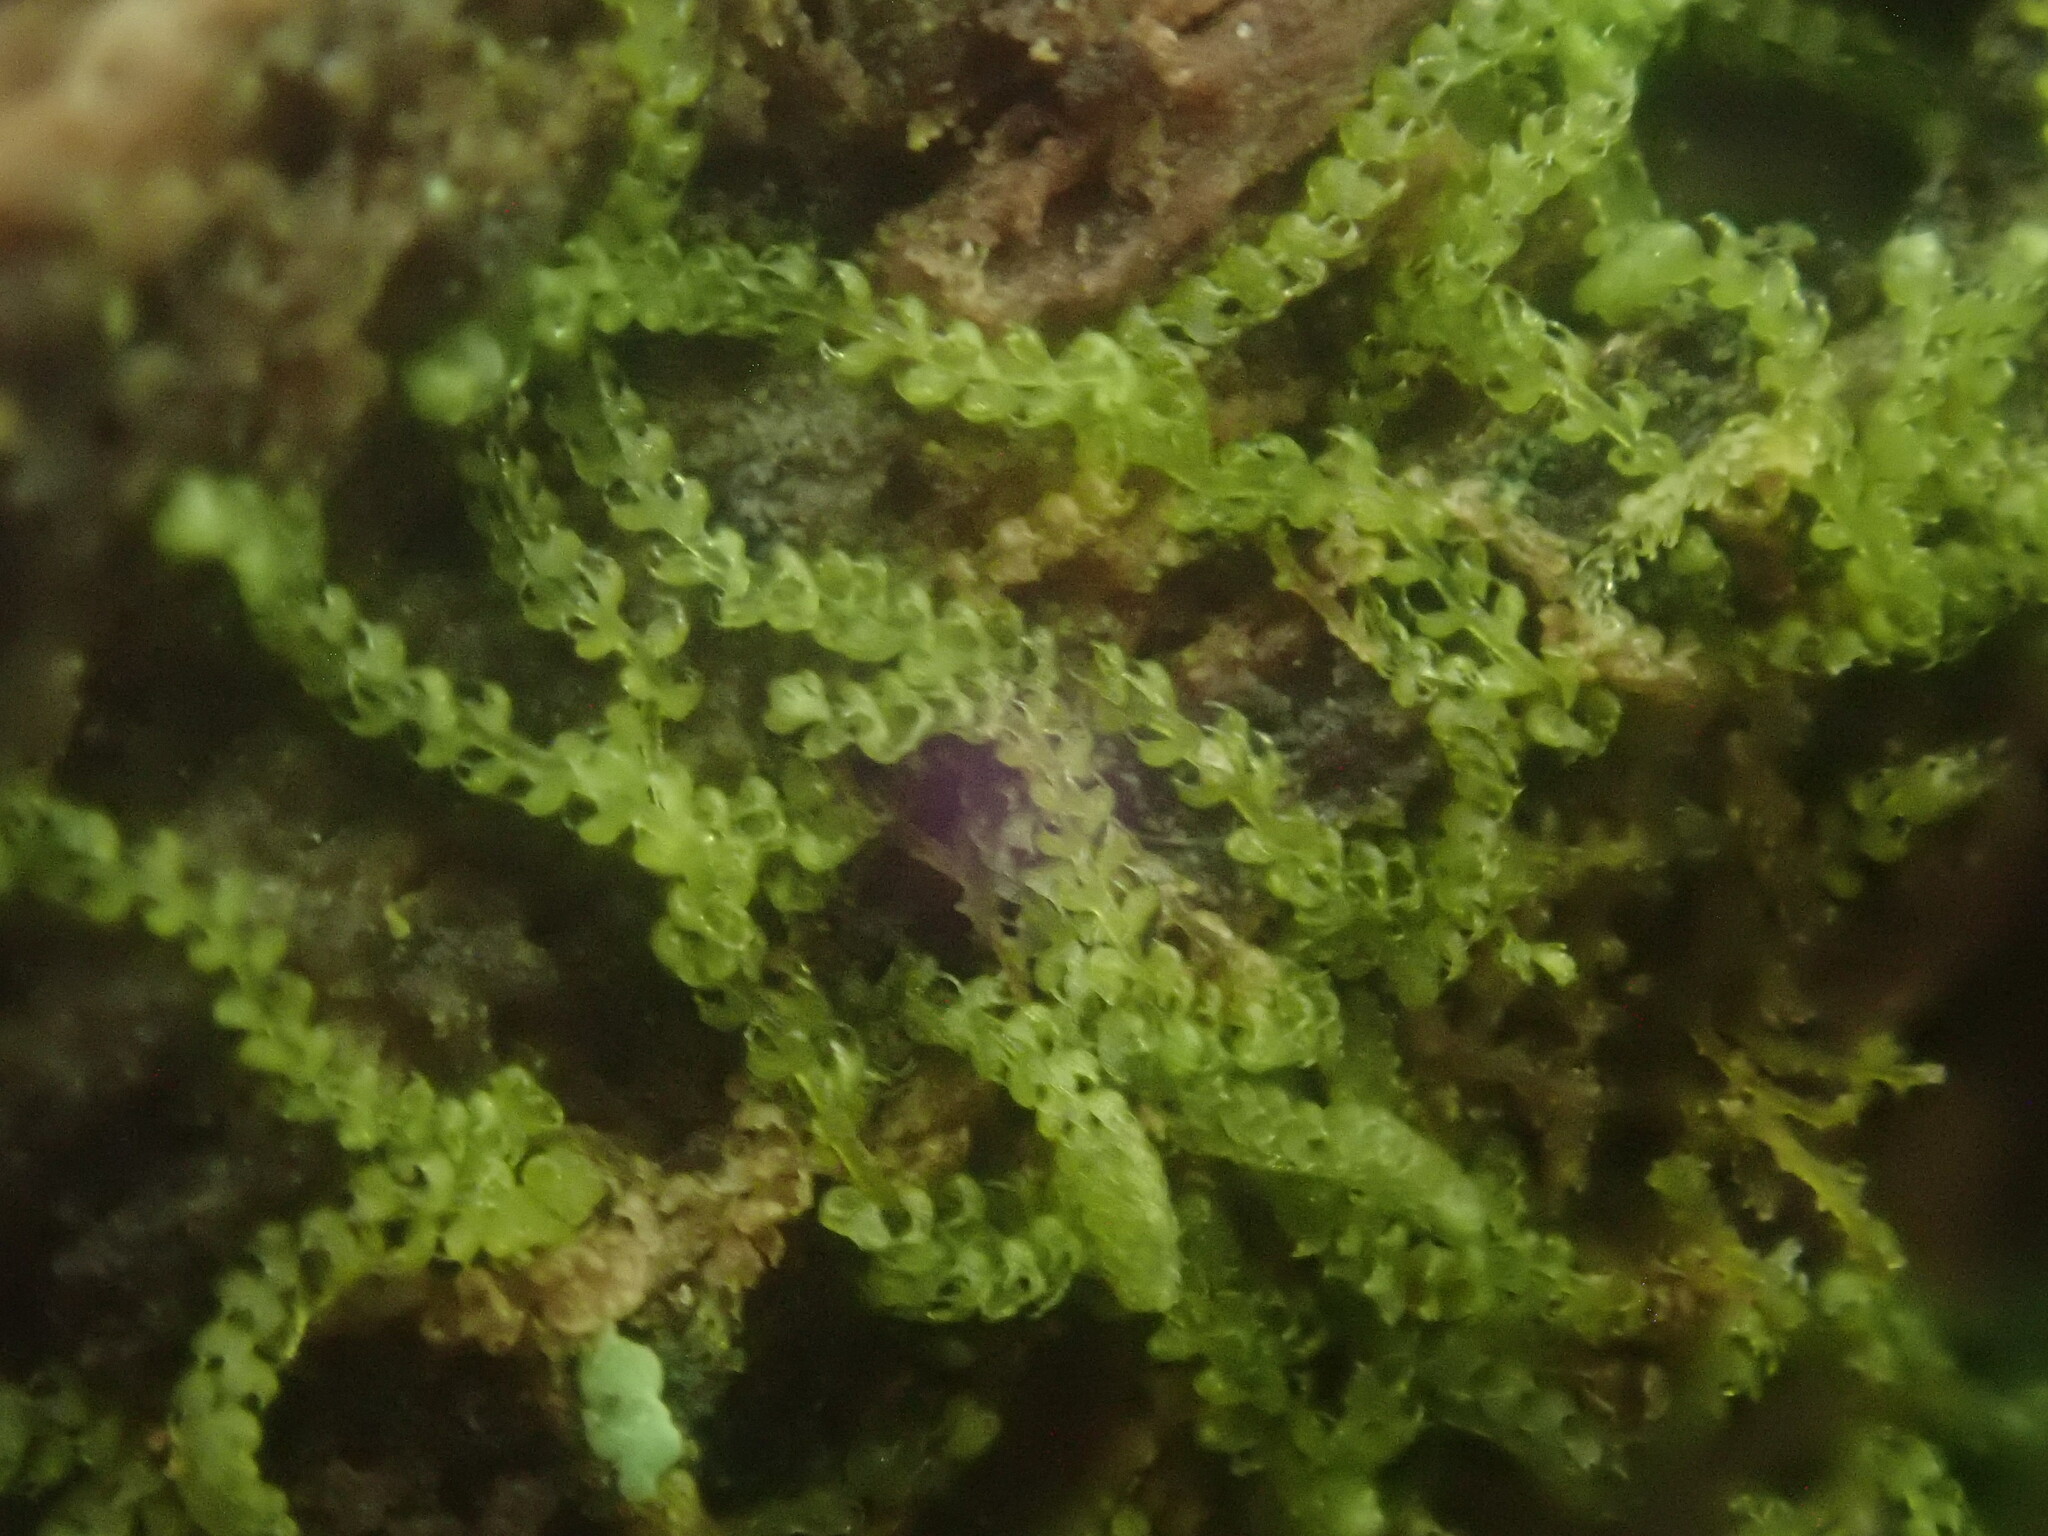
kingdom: Plantae
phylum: Marchantiophyta
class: Jungermanniopsida
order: Jungermanniales
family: Cephaloziaceae
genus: Nowellia
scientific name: Nowellia curvifolia
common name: Wood rustwort
